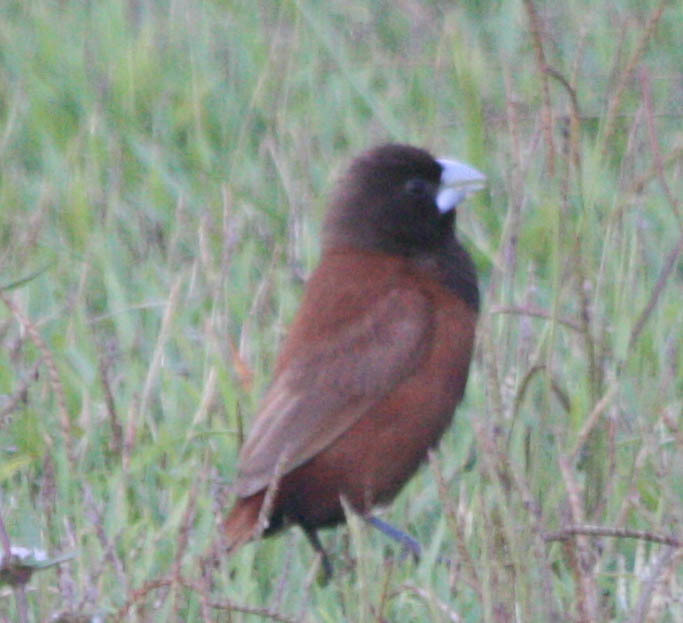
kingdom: Animalia
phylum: Chordata
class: Aves
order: Passeriformes
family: Estrildidae
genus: Lonchura
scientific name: Lonchura atricapilla
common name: Chestnut munia
